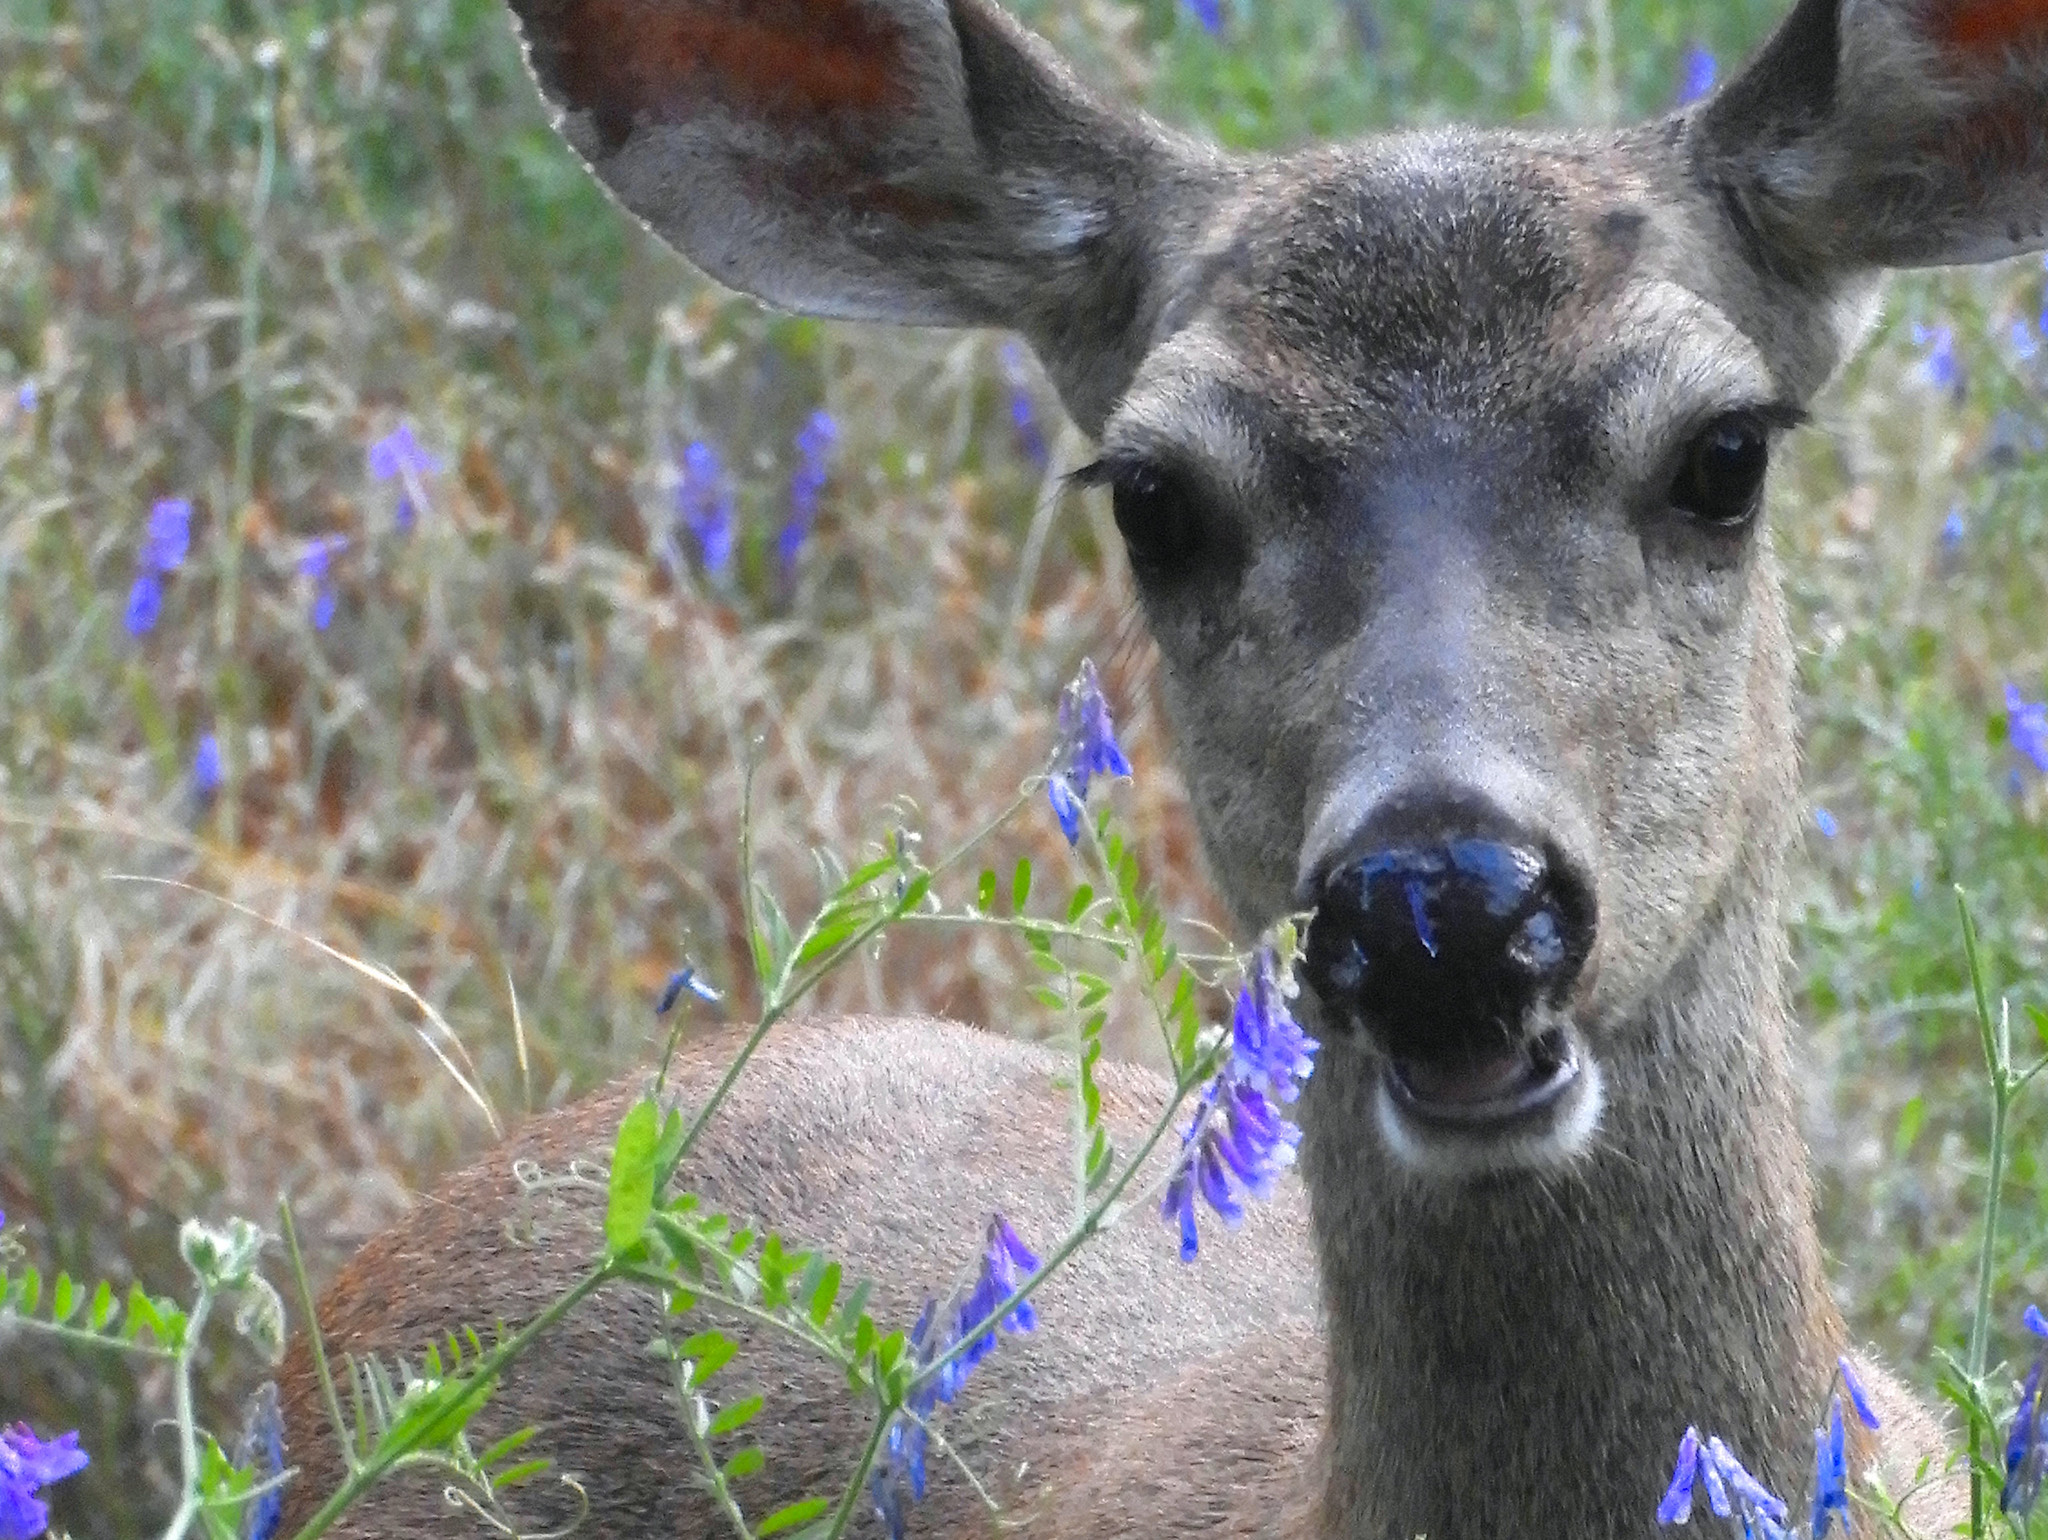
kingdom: Animalia
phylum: Chordata
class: Mammalia
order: Artiodactyla
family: Cervidae
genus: Odocoileus
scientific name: Odocoileus hemionus
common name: Mule deer
